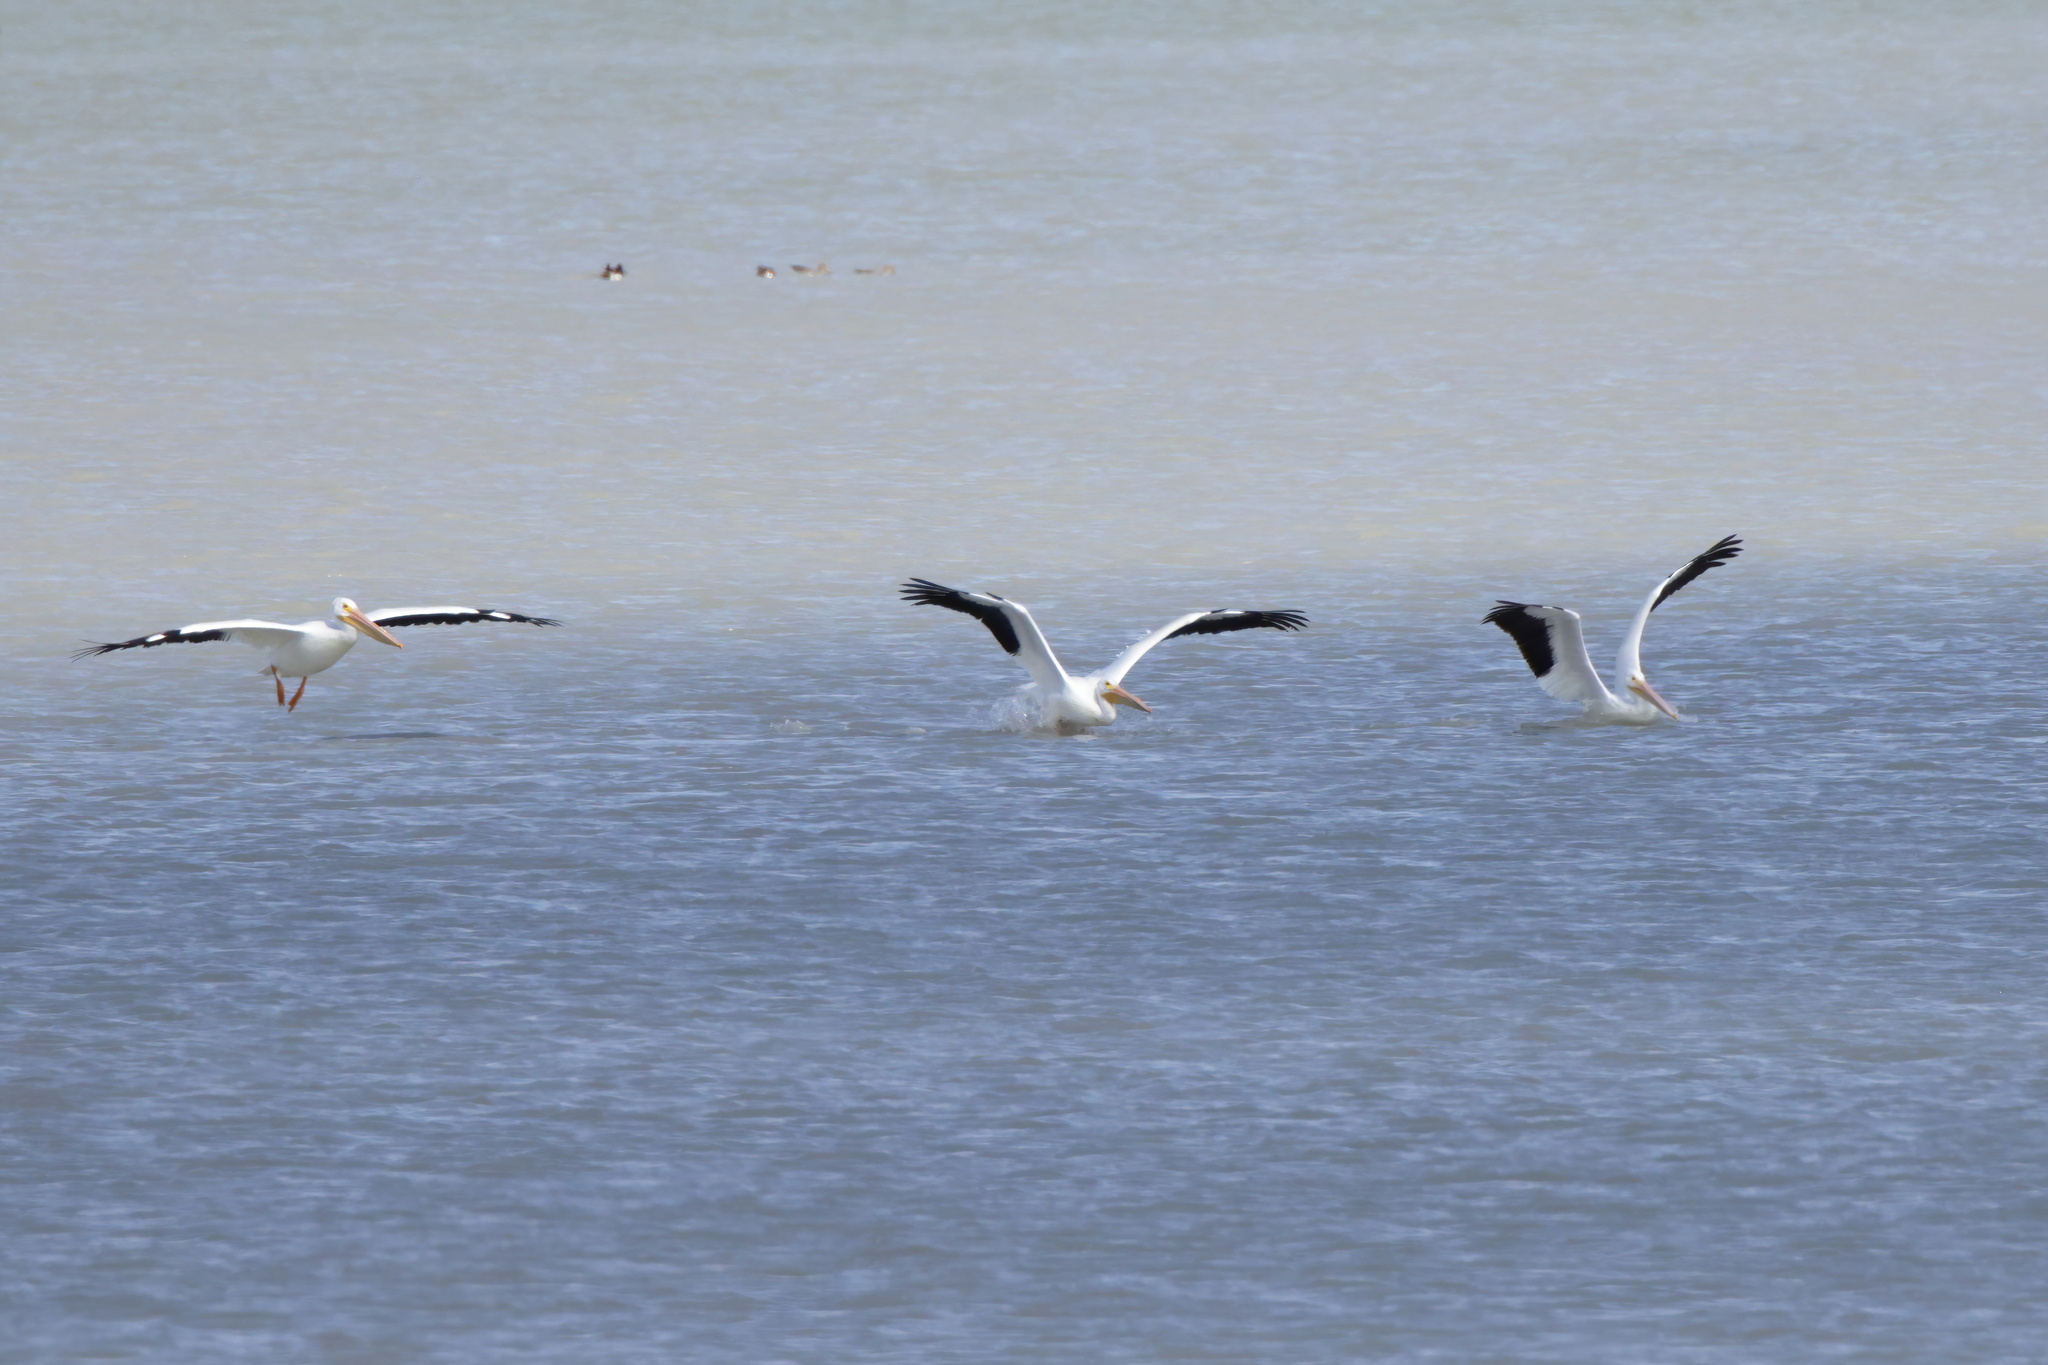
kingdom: Animalia
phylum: Chordata
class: Aves
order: Pelecaniformes
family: Pelecanidae
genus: Pelecanus
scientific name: Pelecanus erythrorhynchos
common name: American white pelican
